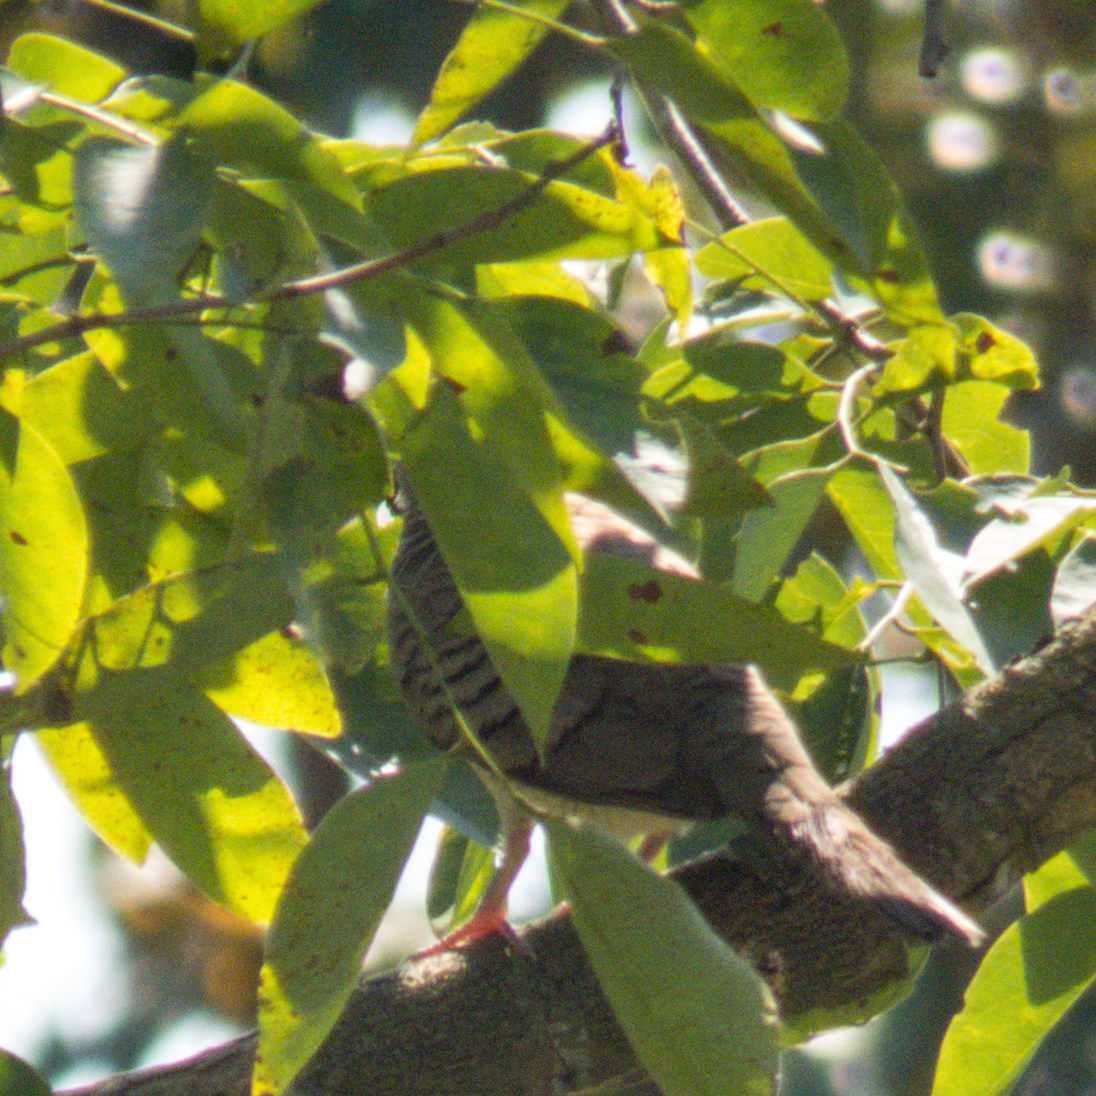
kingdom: Animalia
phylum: Chordata
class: Aves
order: Columbiformes
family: Columbidae
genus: Geopelia
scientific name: Geopelia striata
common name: Zebra dove
